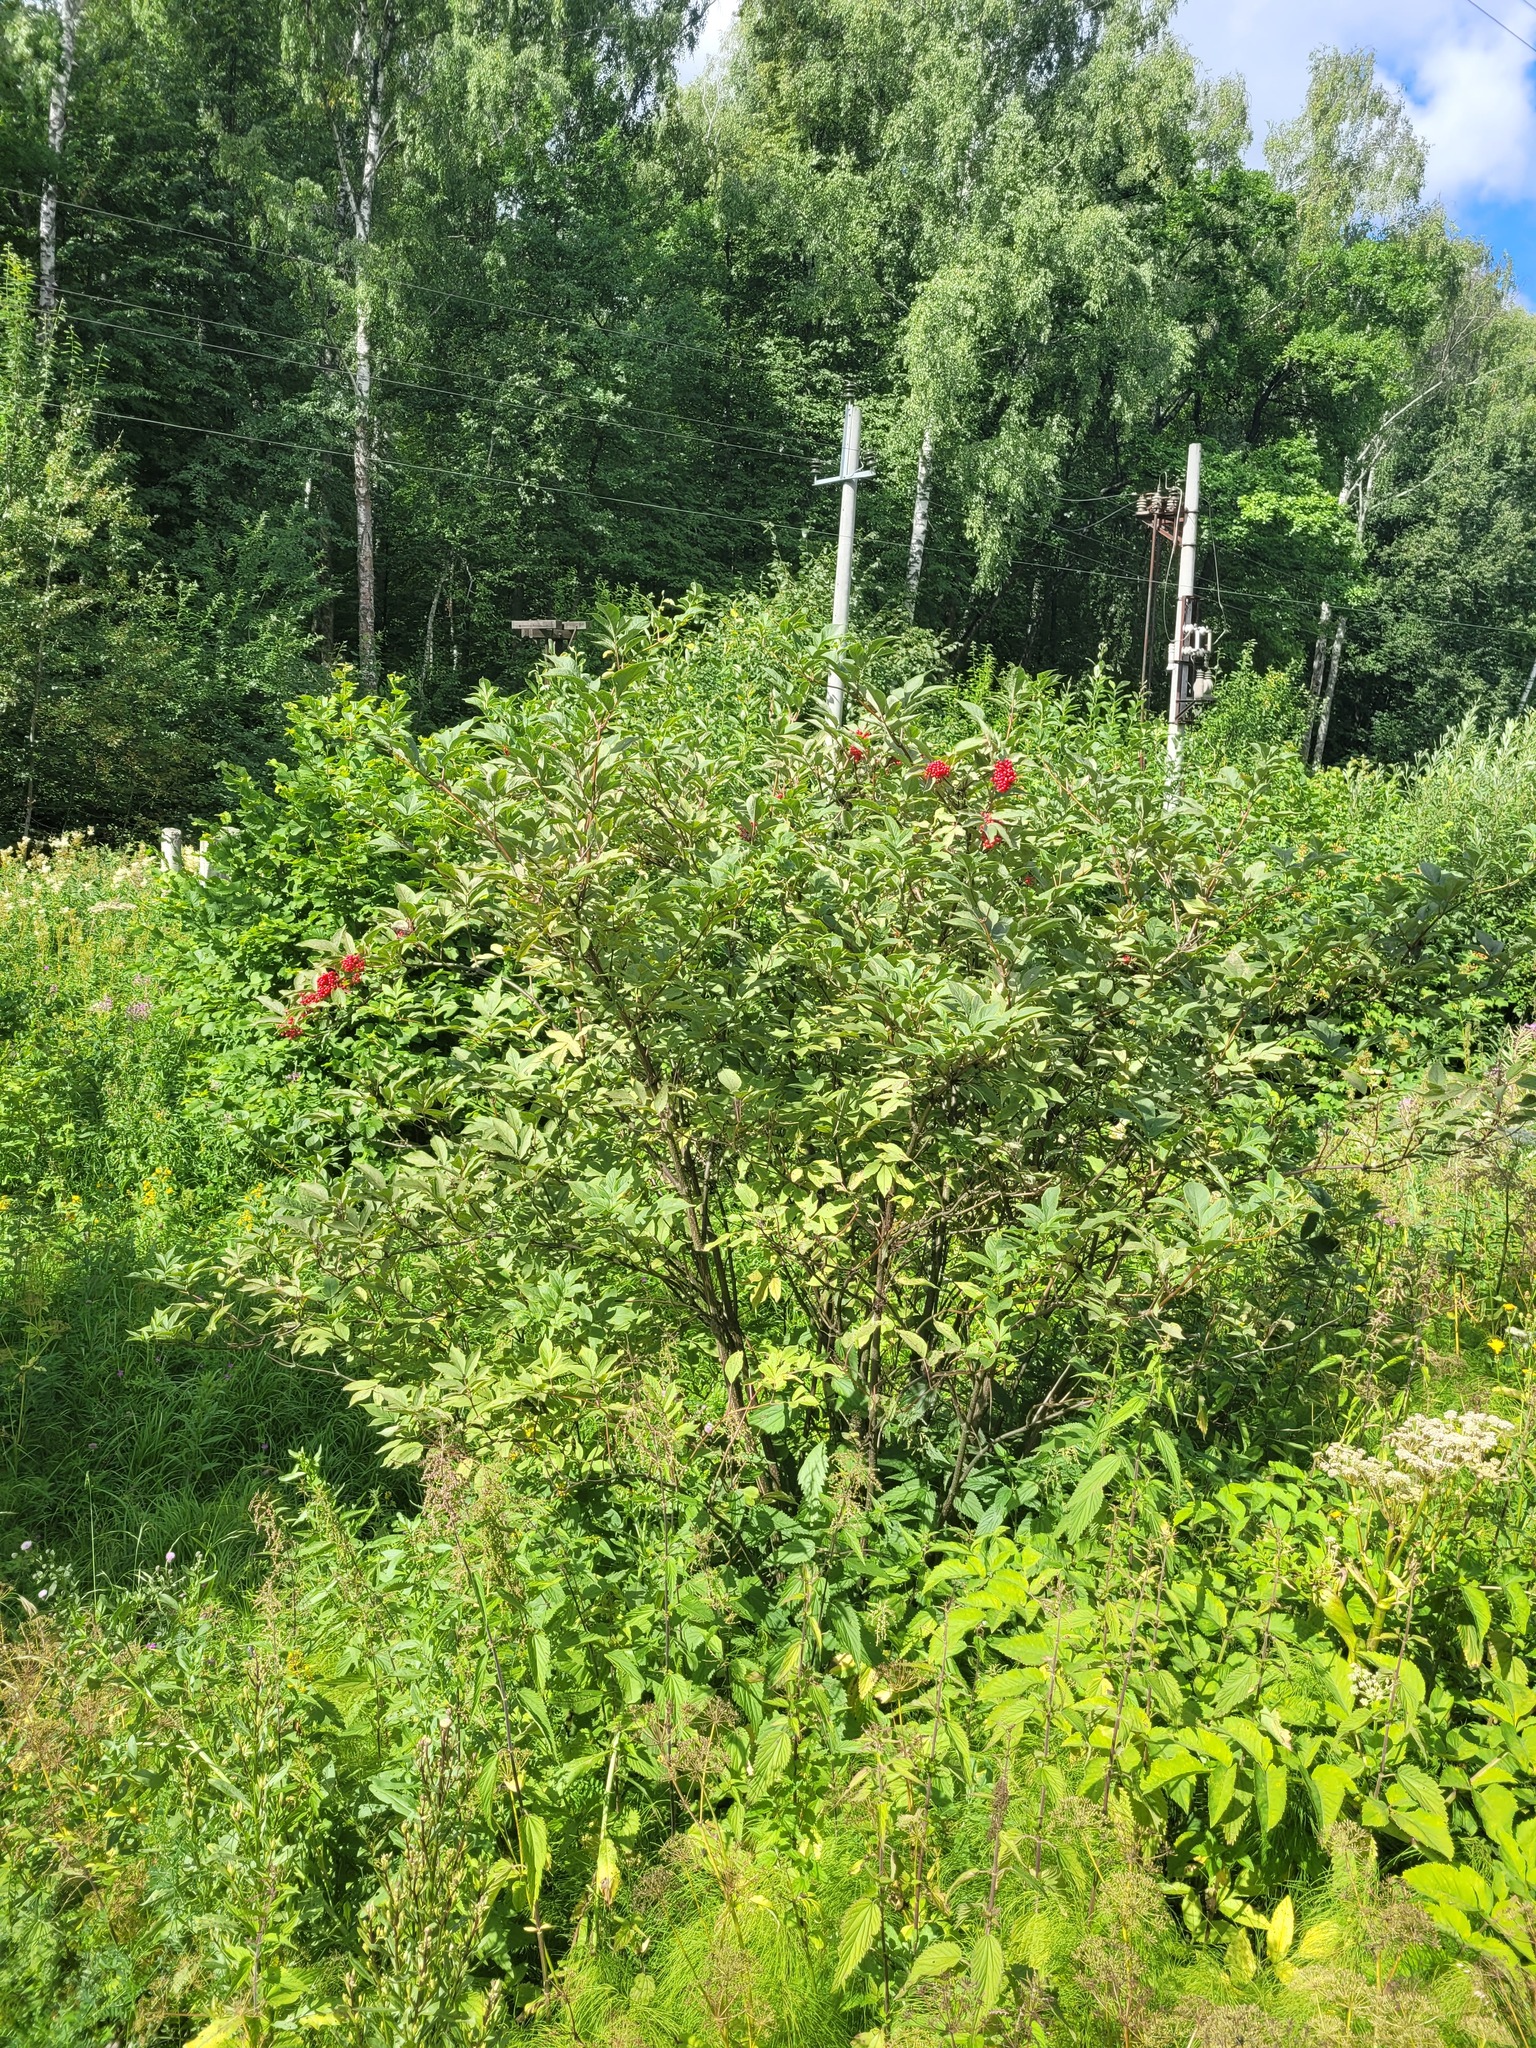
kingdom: Plantae
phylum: Tracheophyta
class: Magnoliopsida
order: Dipsacales
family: Viburnaceae
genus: Sambucus
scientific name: Sambucus racemosa
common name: Red-berried elder
